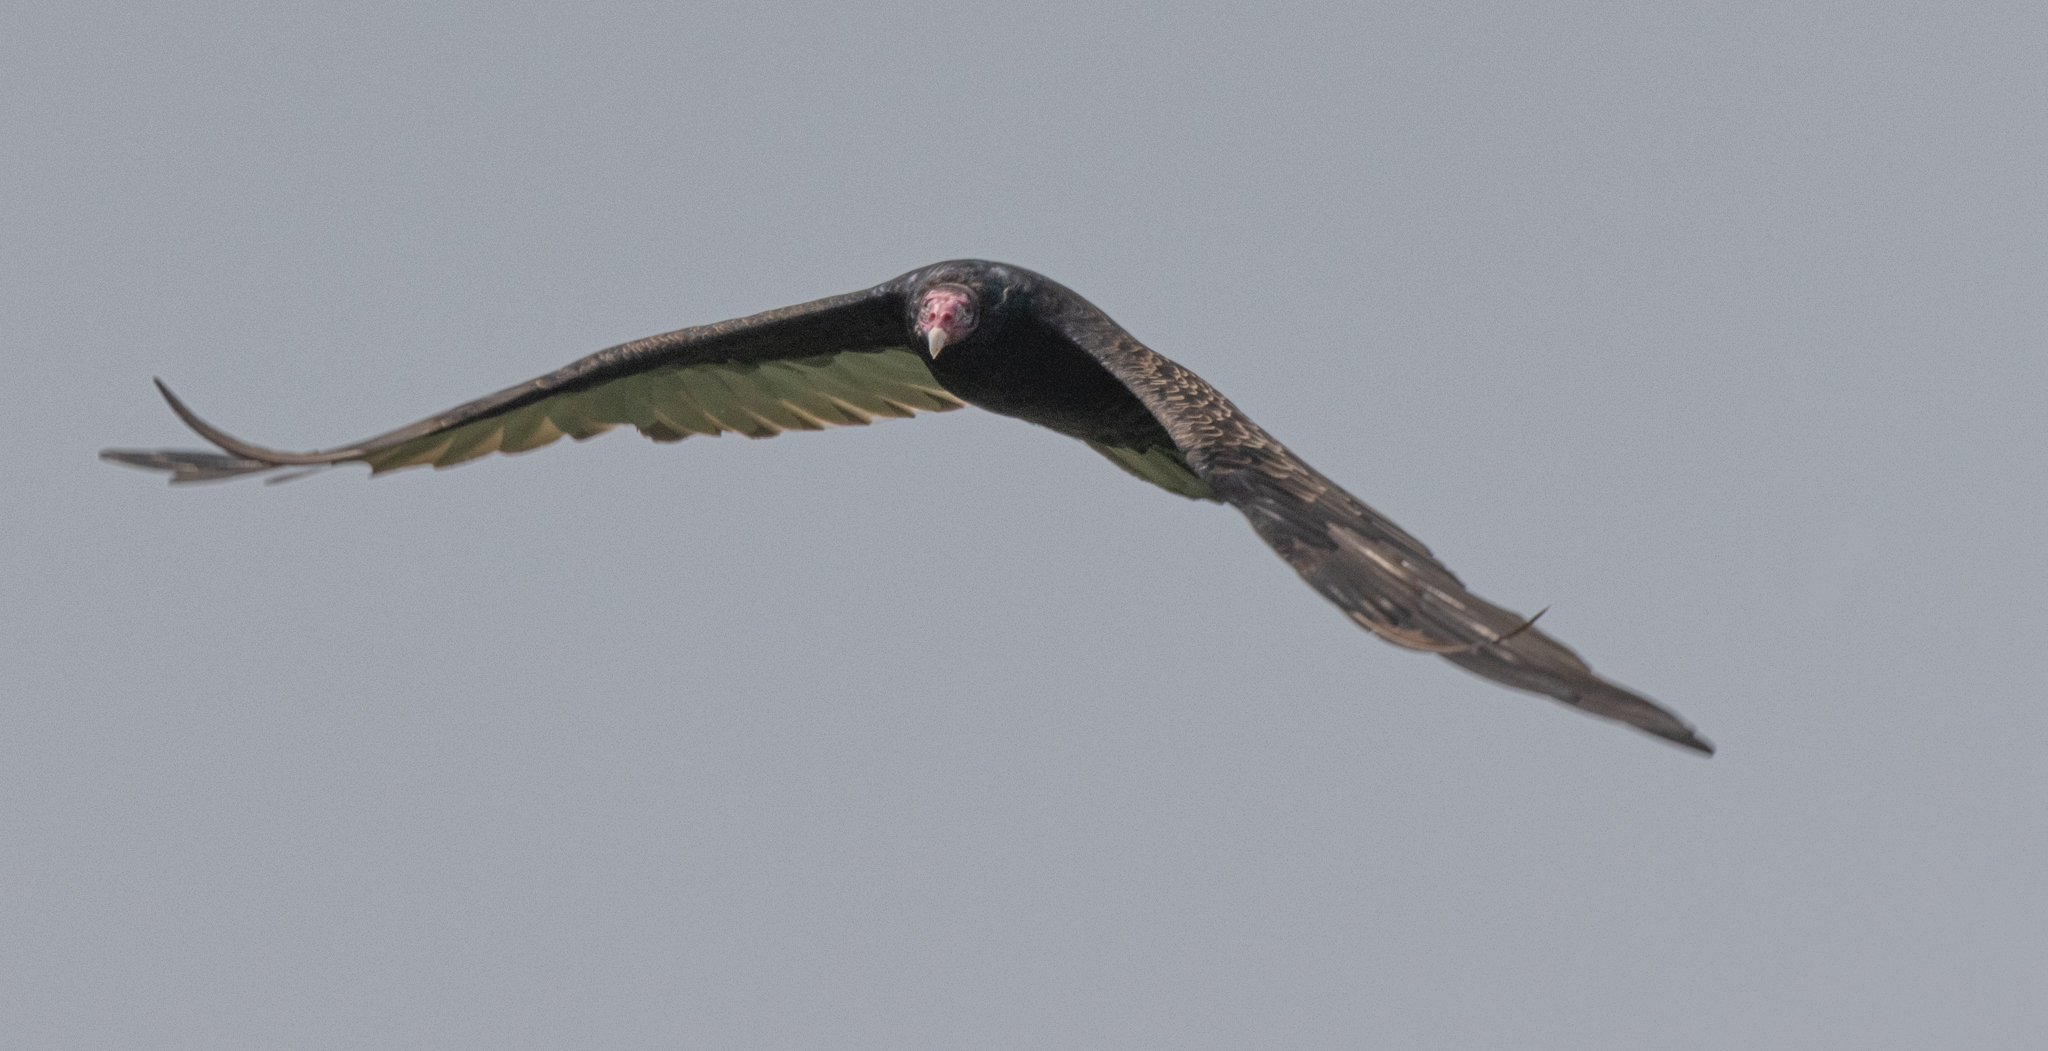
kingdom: Animalia
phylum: Chordata
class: Aves
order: Accipitriformes
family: Cathartidae
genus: Cathartes
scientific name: Cathartes aura
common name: Turkey vulture
